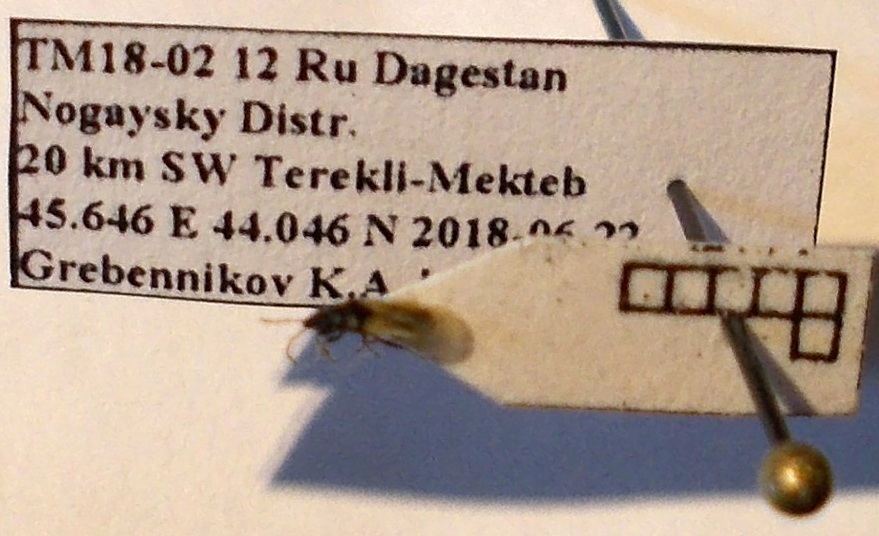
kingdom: Animalia
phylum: Arthropoda
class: Insecta
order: Hemiptera
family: Oxycarenidae
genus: Metopoplax
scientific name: Metopoplax origani
